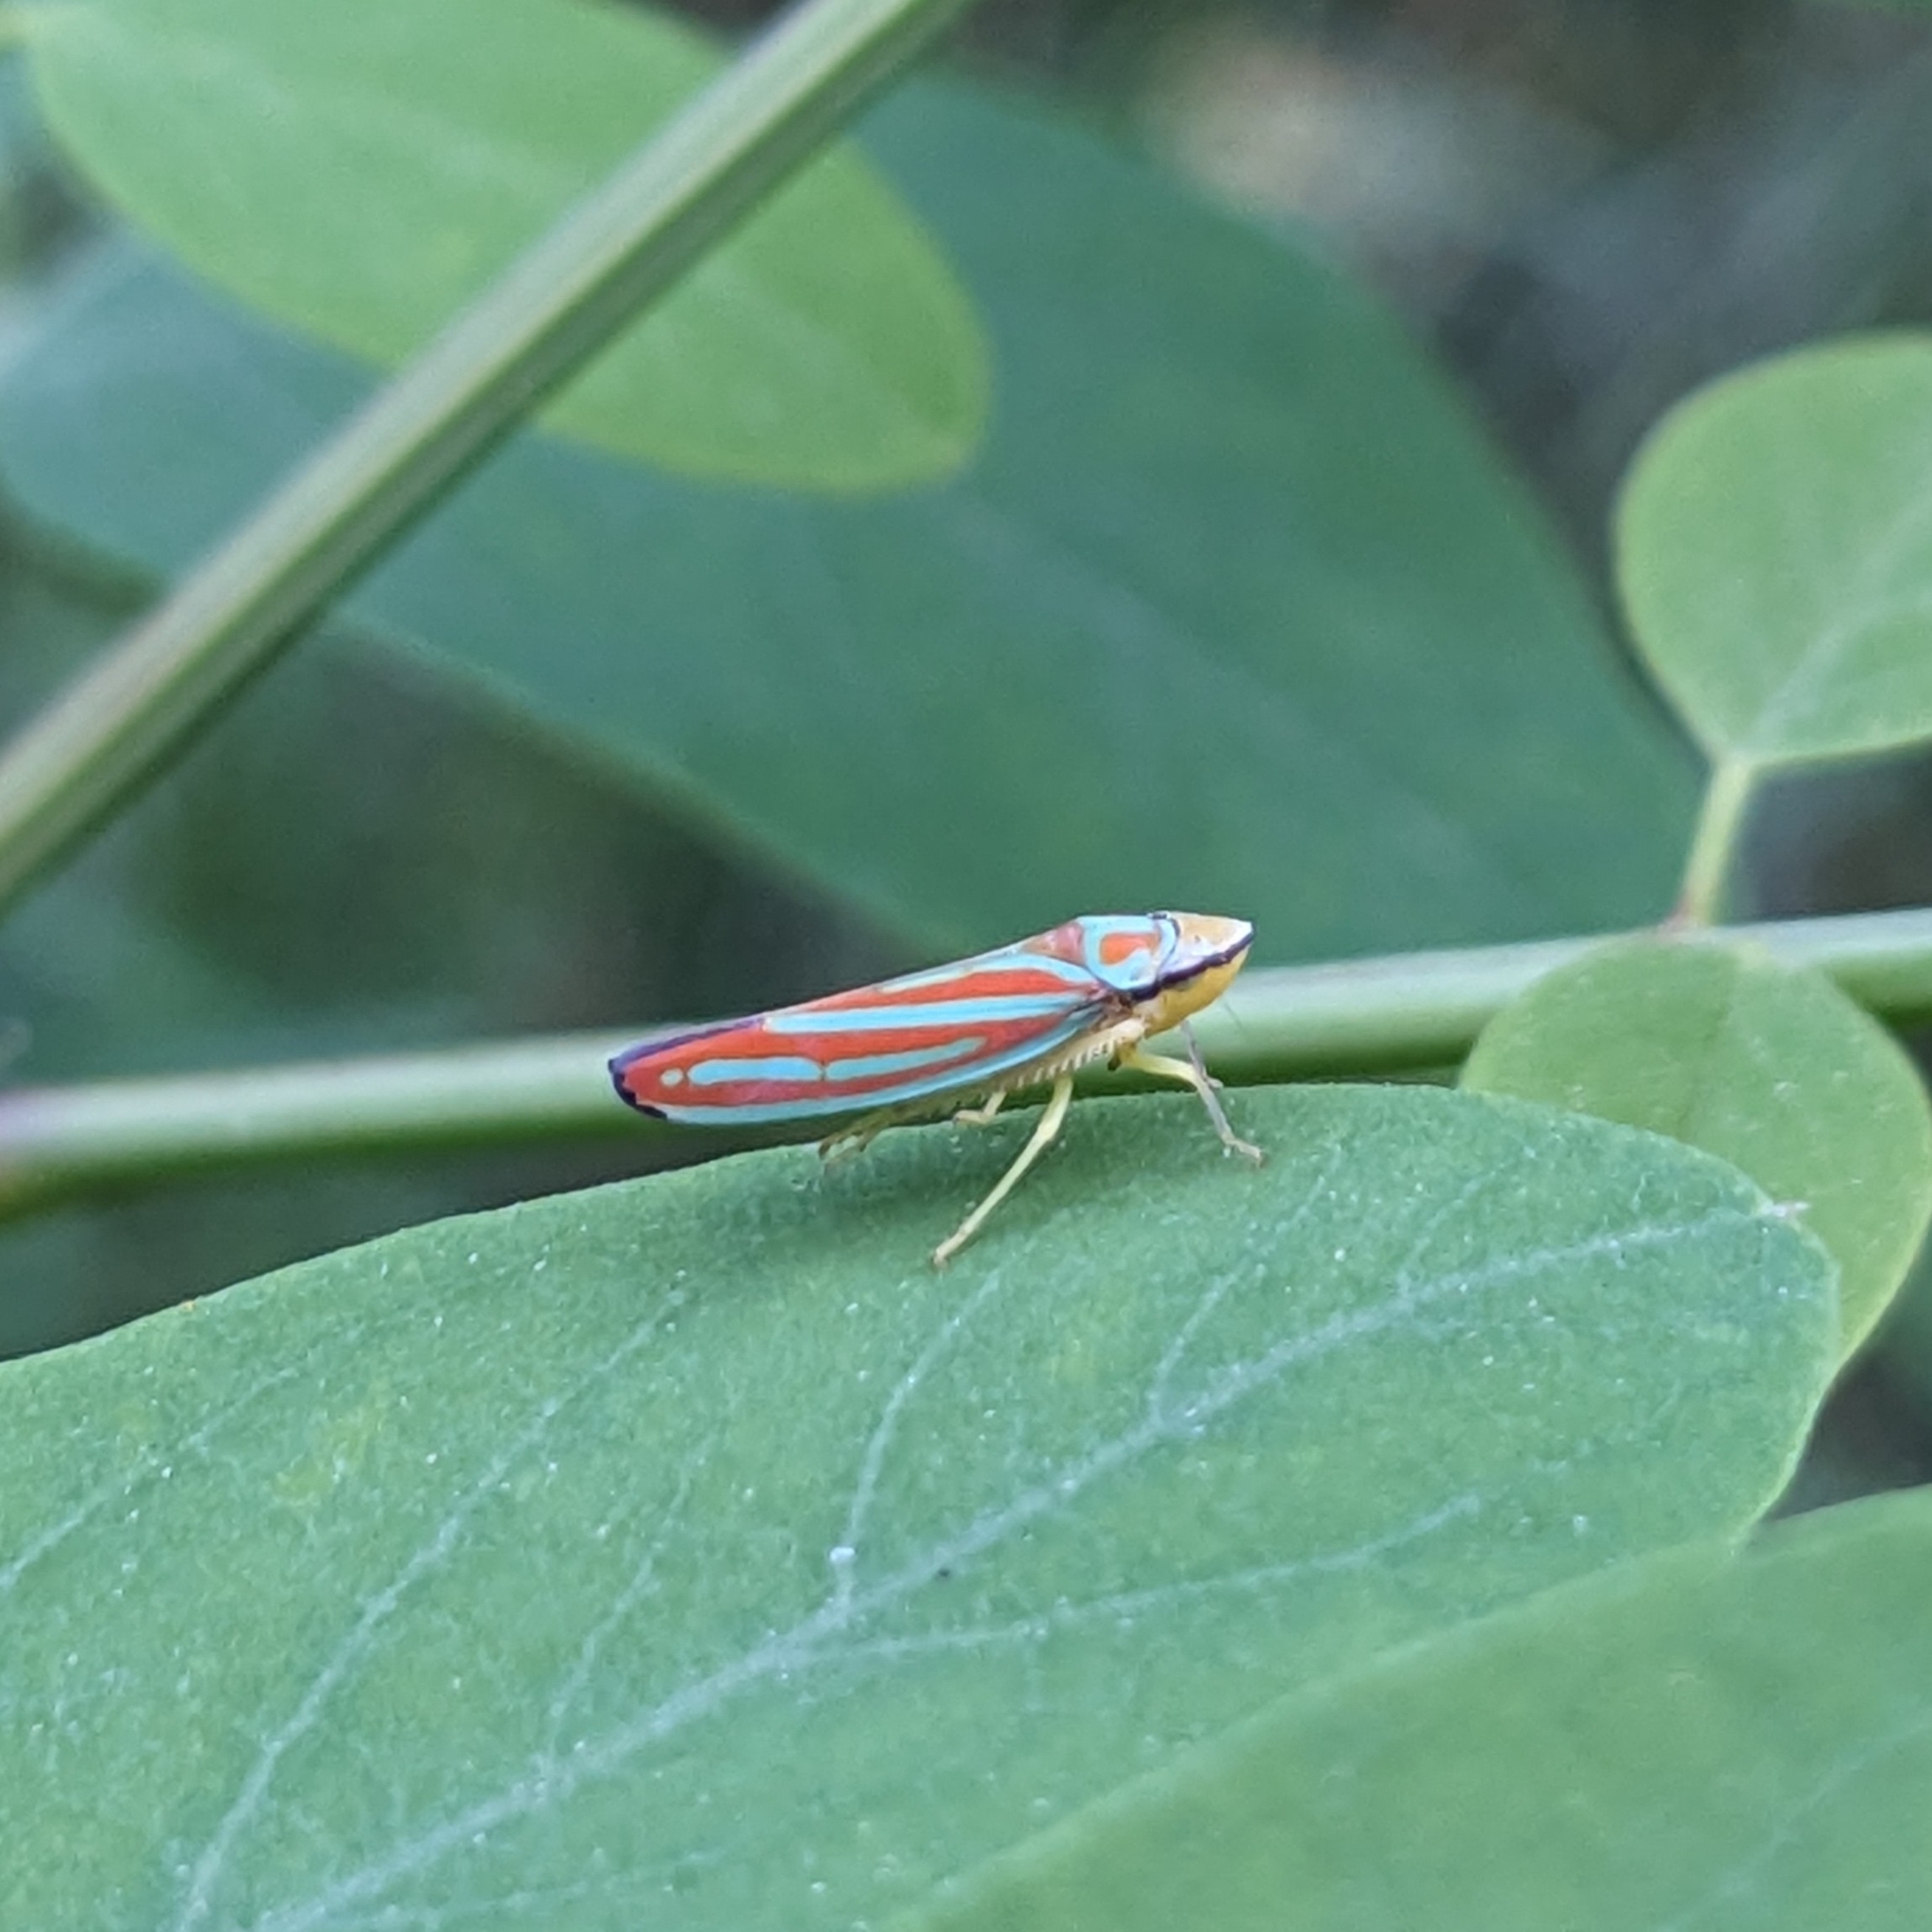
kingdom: Animalia
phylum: Arthropoda
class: Insecta
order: Hemiptera
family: Cicadellidae
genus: Graphocephala
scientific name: Graphocephala coccinea
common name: Candy-striped leafhopper
